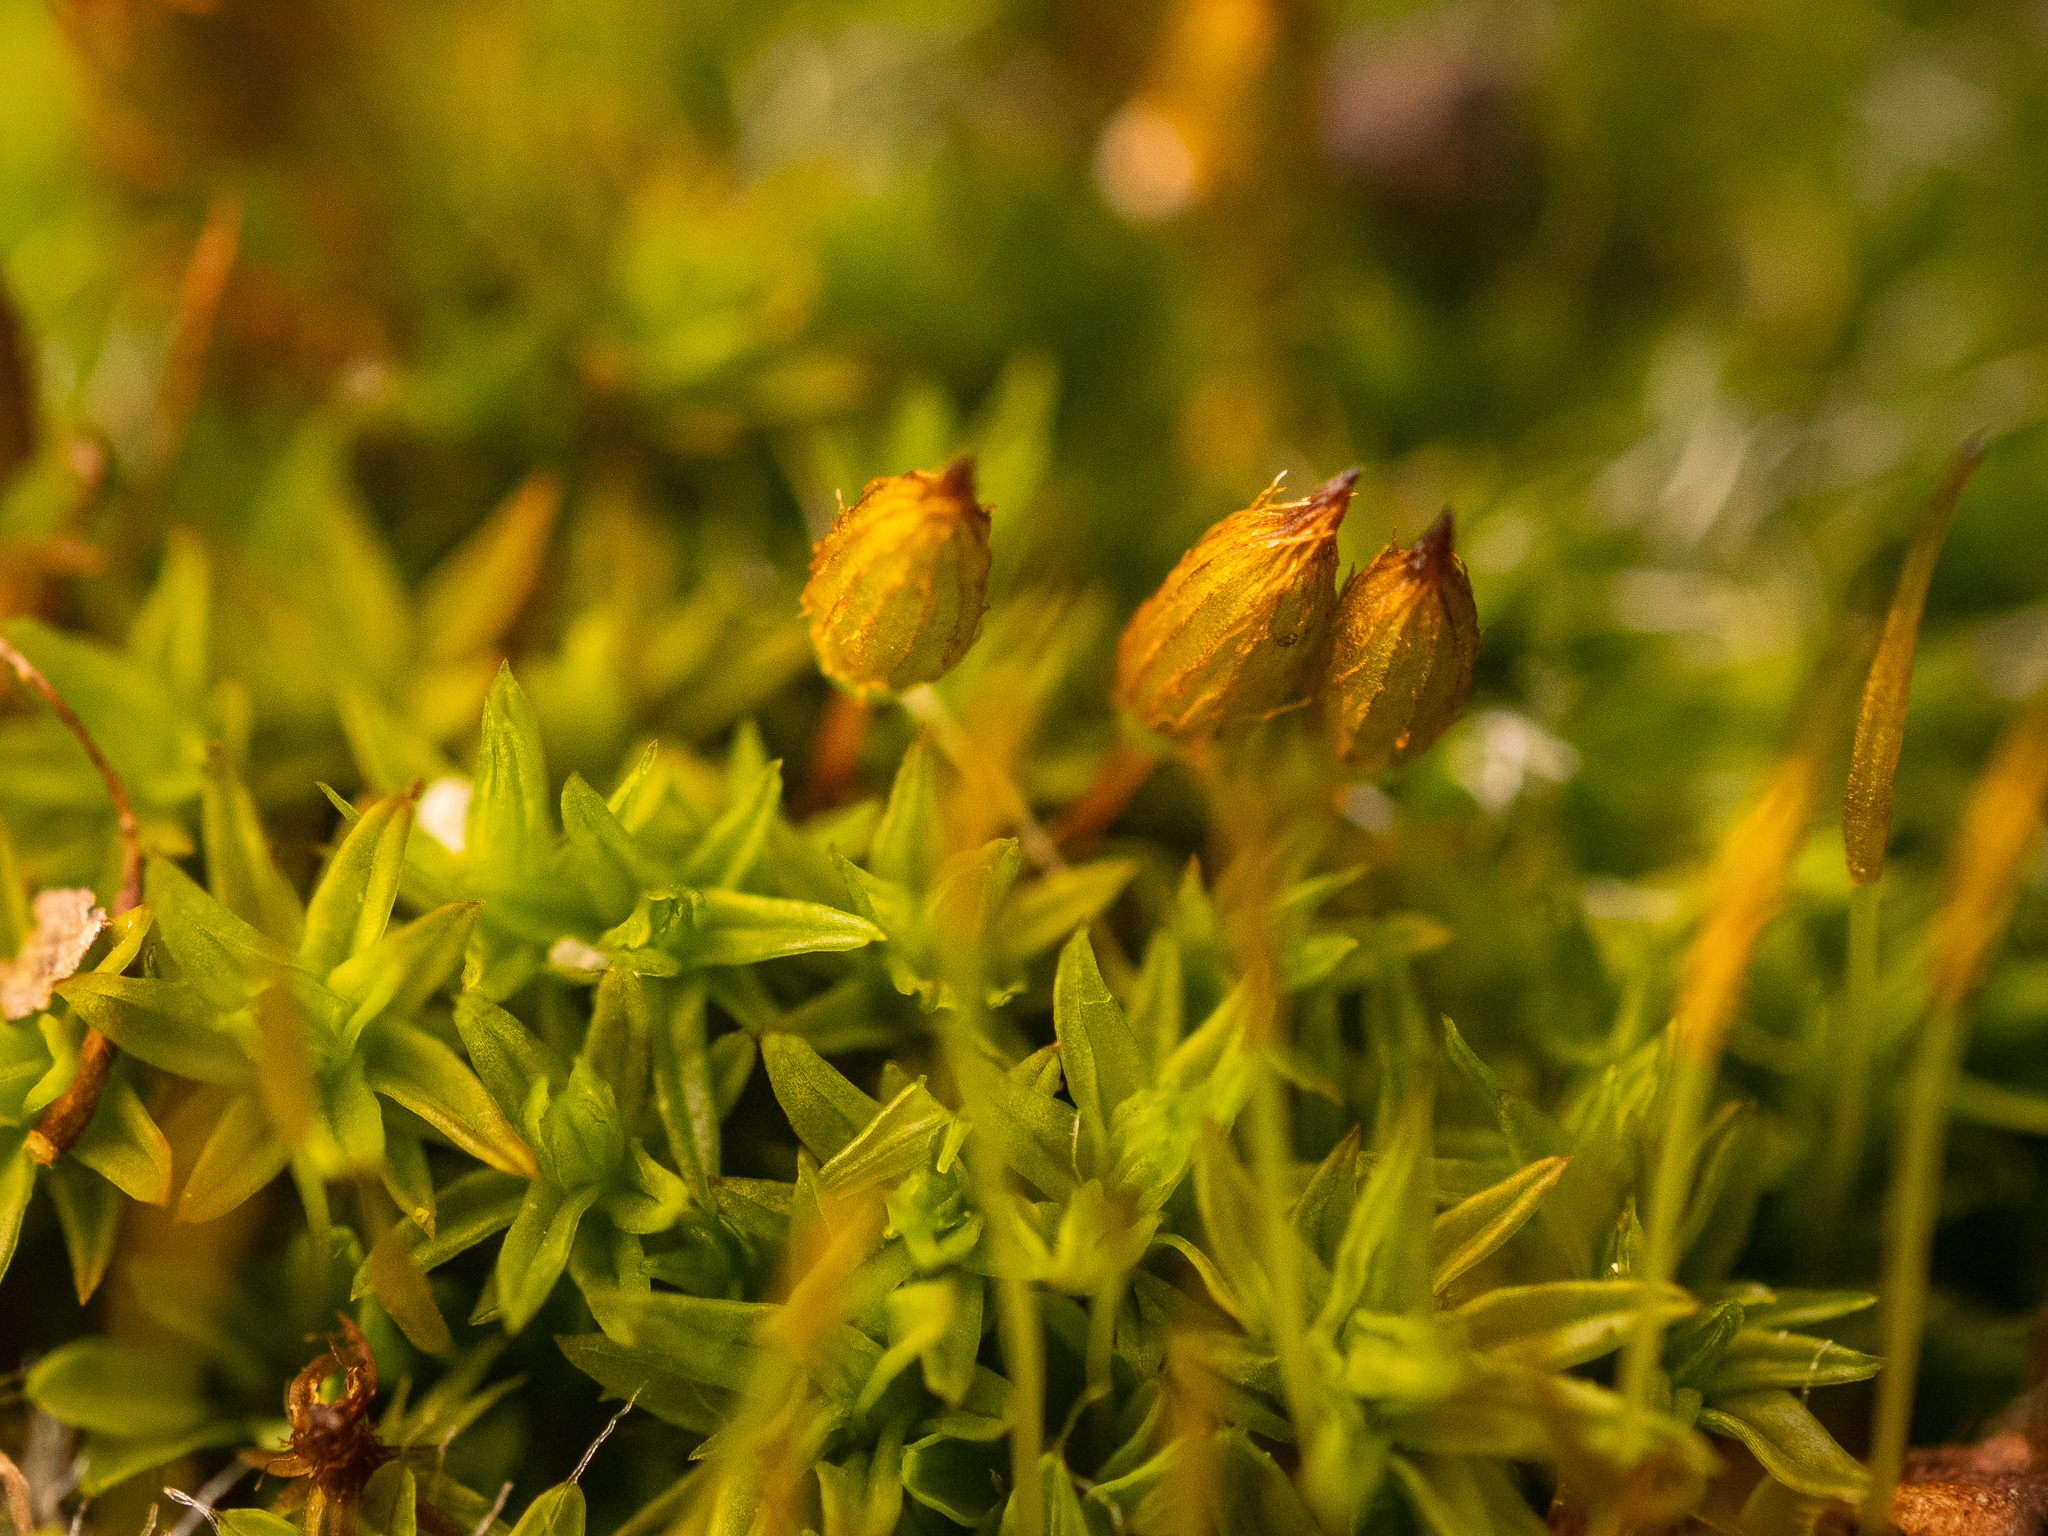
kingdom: Plantae
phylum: Bryophyta
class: Bryopsida
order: Orthotrichales
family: Orthotrichaceae
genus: Orthotrichum
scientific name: Orthotrichum anomalum
